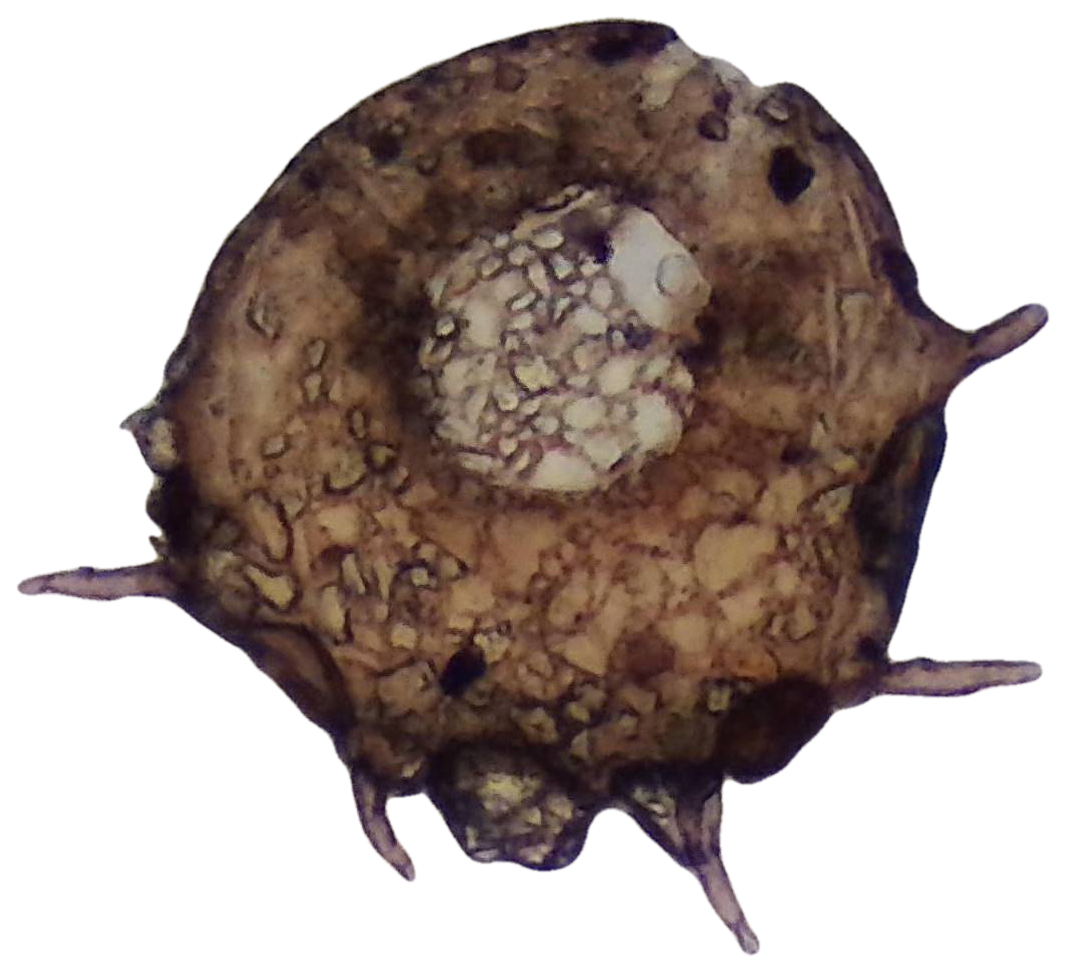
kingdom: Protozoa
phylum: Amoebozoa
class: Lobosa
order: Arcellinida
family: Centropyxidae
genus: Centropyxis
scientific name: Centropyxis aculeata
